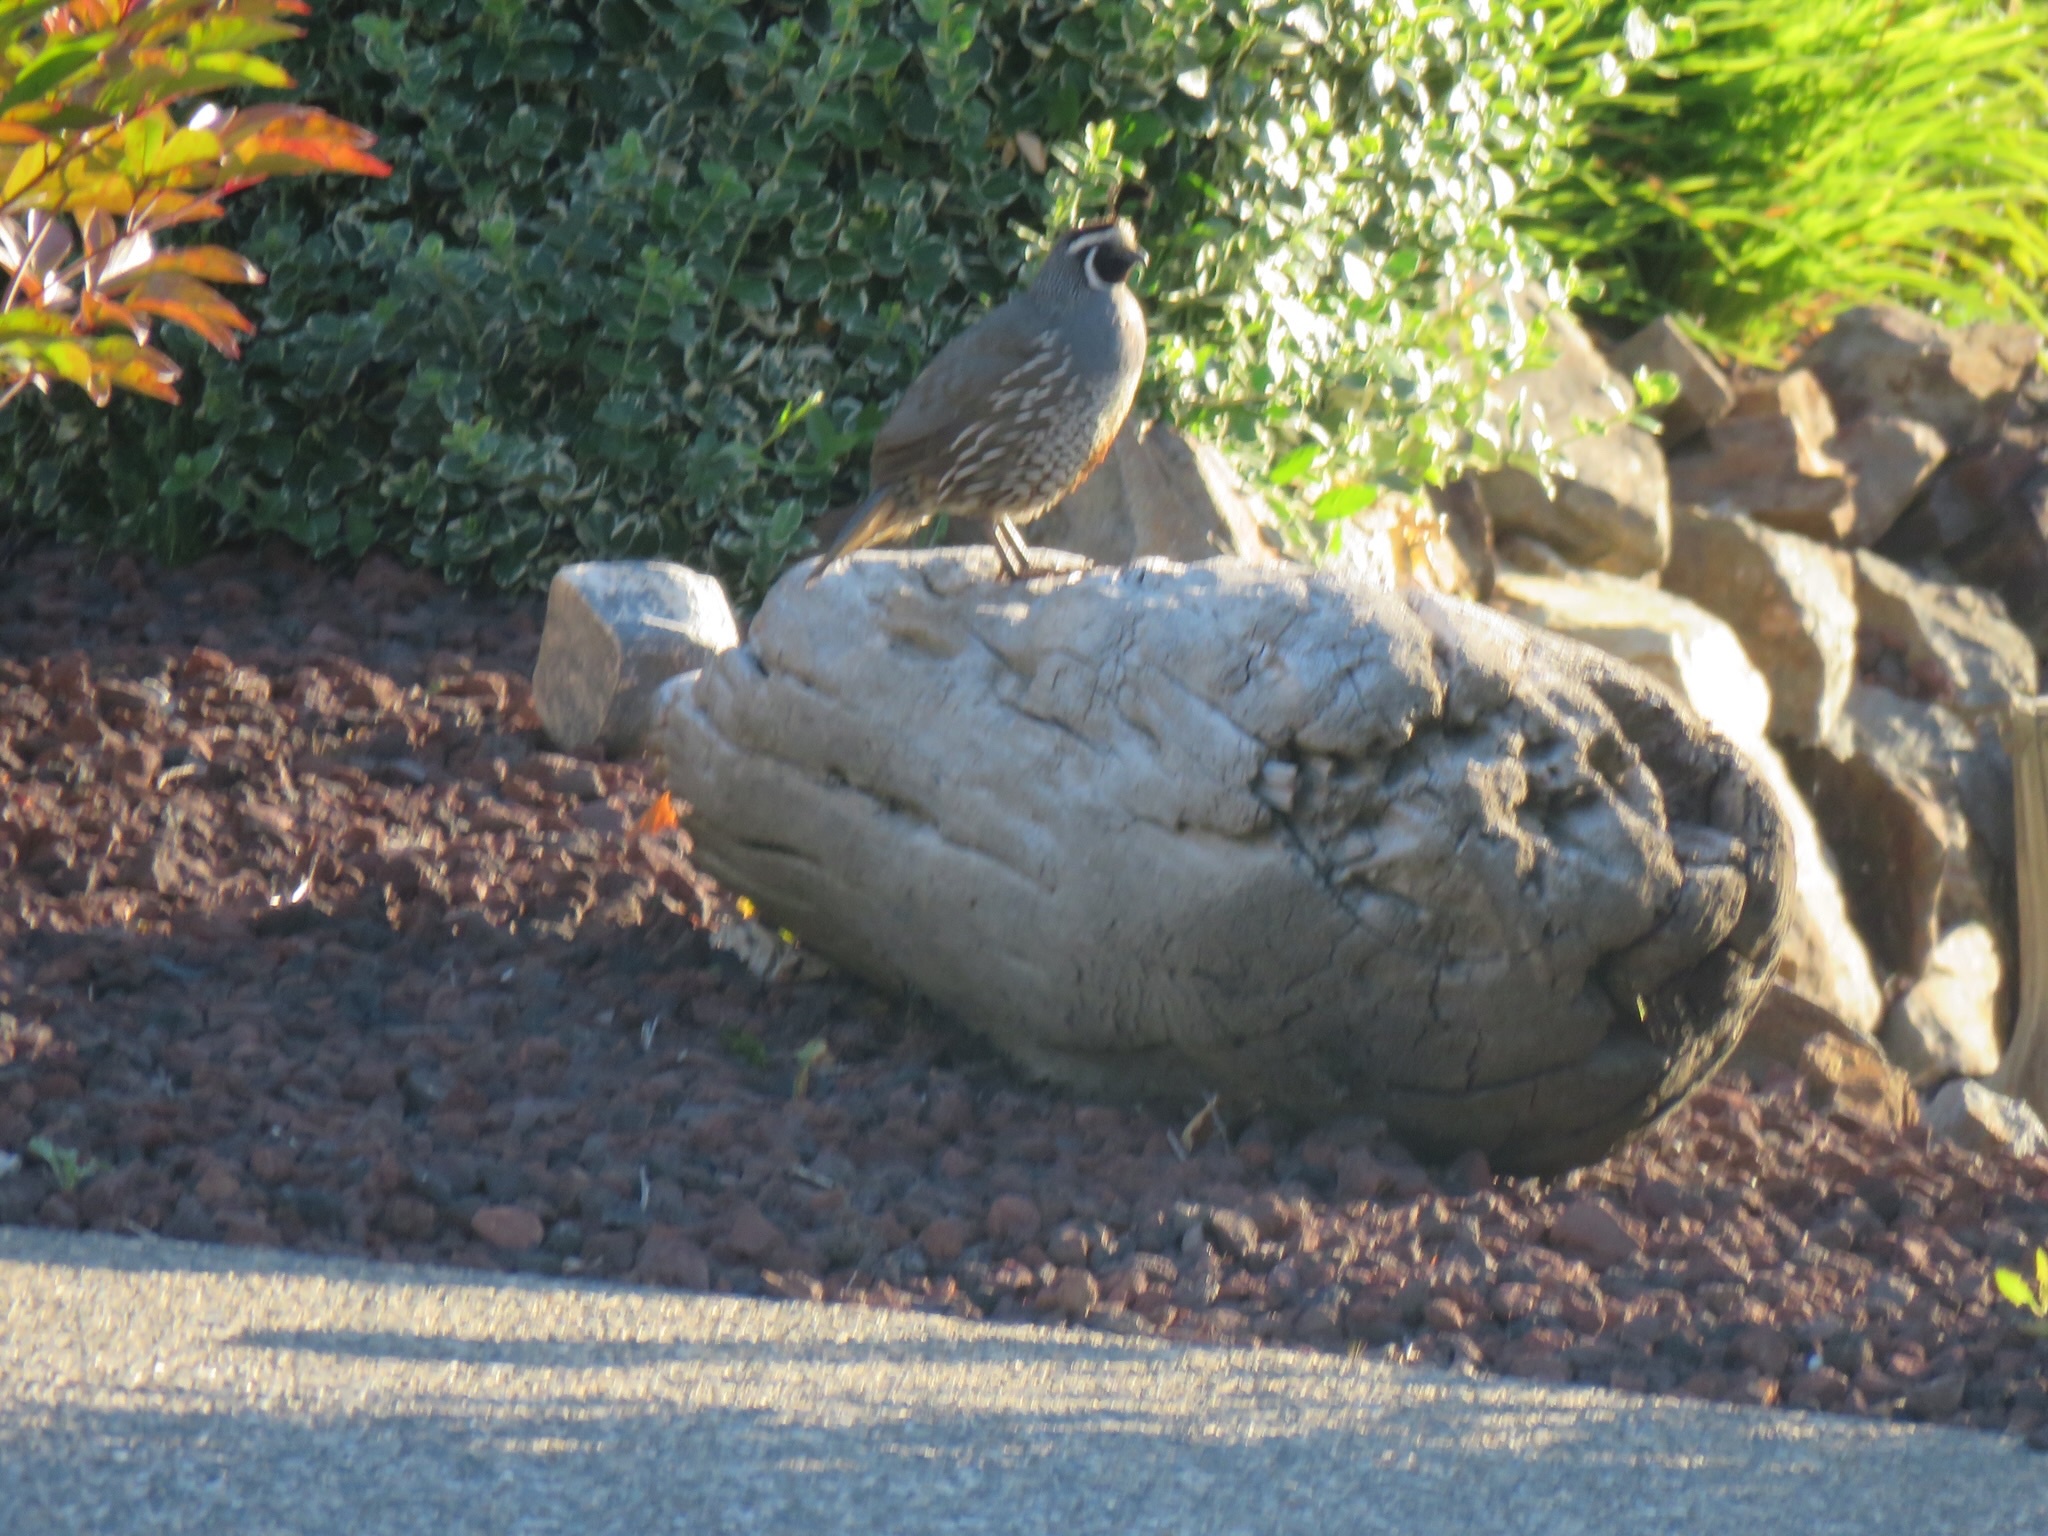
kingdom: Animalia
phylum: Chordata
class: Aves
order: Galliformes
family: Odontophoridae
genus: Callipepla
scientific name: Callipepla californica
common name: California quail
